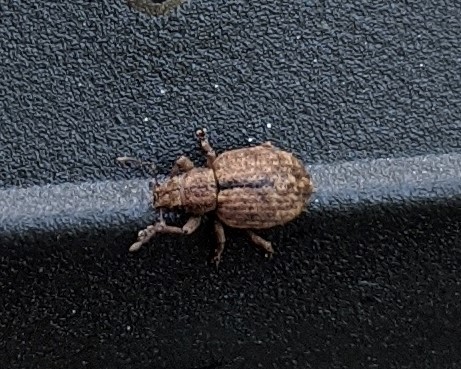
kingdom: Animalia
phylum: Arthropoda
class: Insecta
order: Coleoptera
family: Curculionidae
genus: Strophosoma
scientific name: Strophosoma melanogrammum
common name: Weevil
